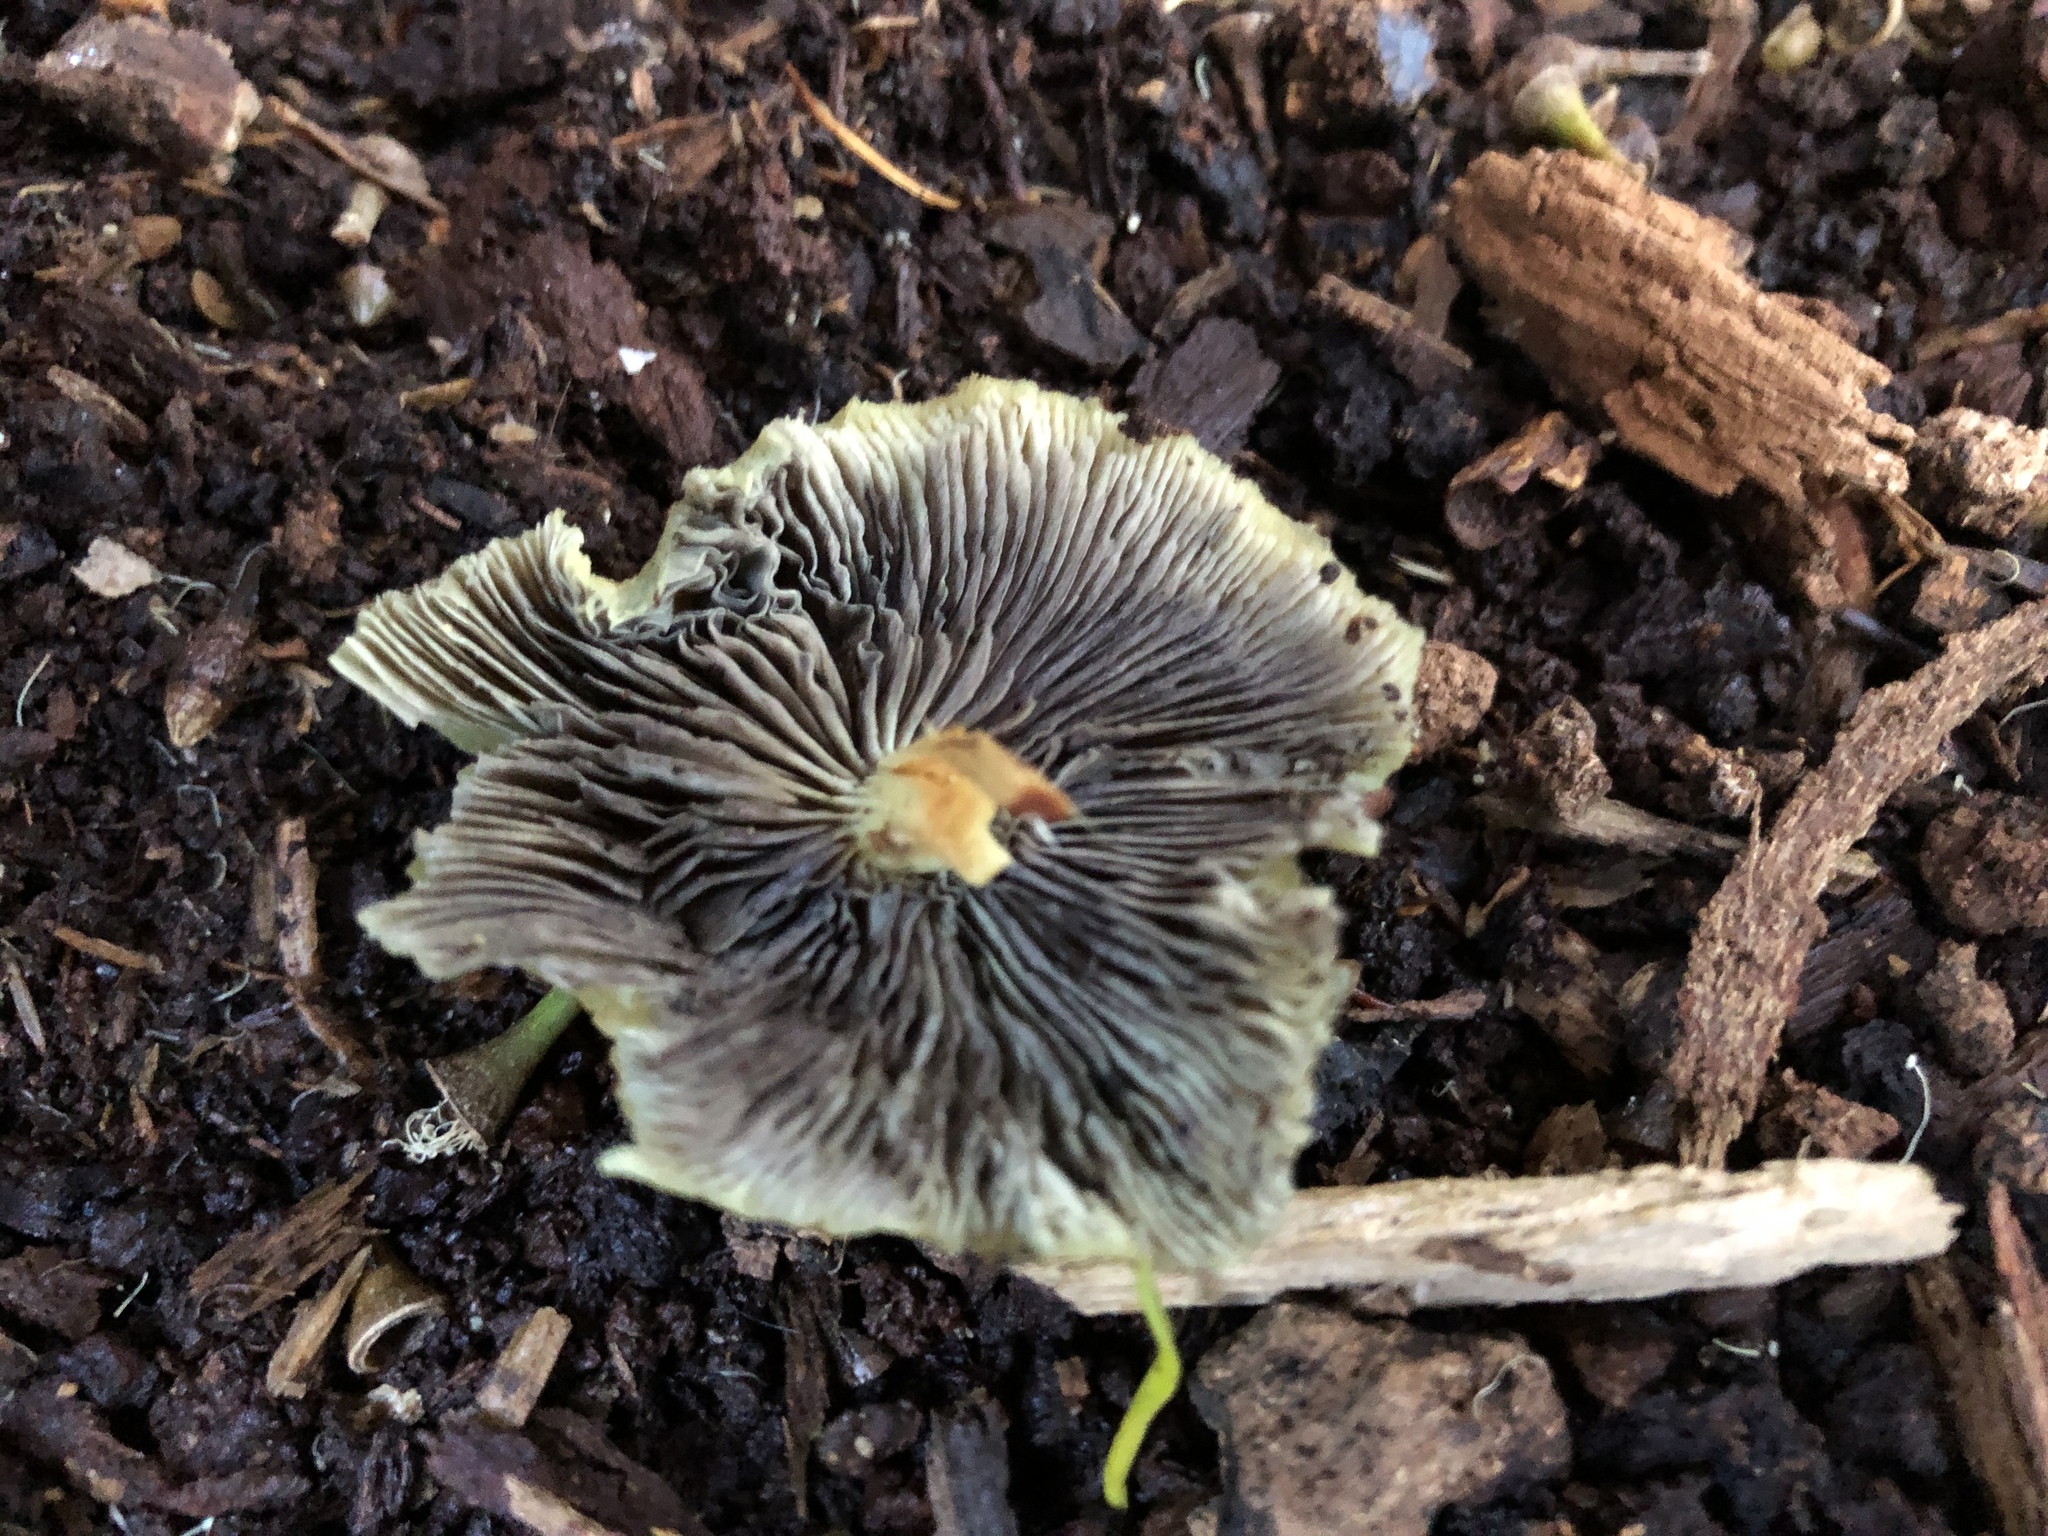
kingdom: Fungi
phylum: Basidiomycota
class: Agaricomycetes
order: Agaricales
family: Strophariaceae
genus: Hypholoma
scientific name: Hypholoma fasciculare
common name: Sulphur tuft
